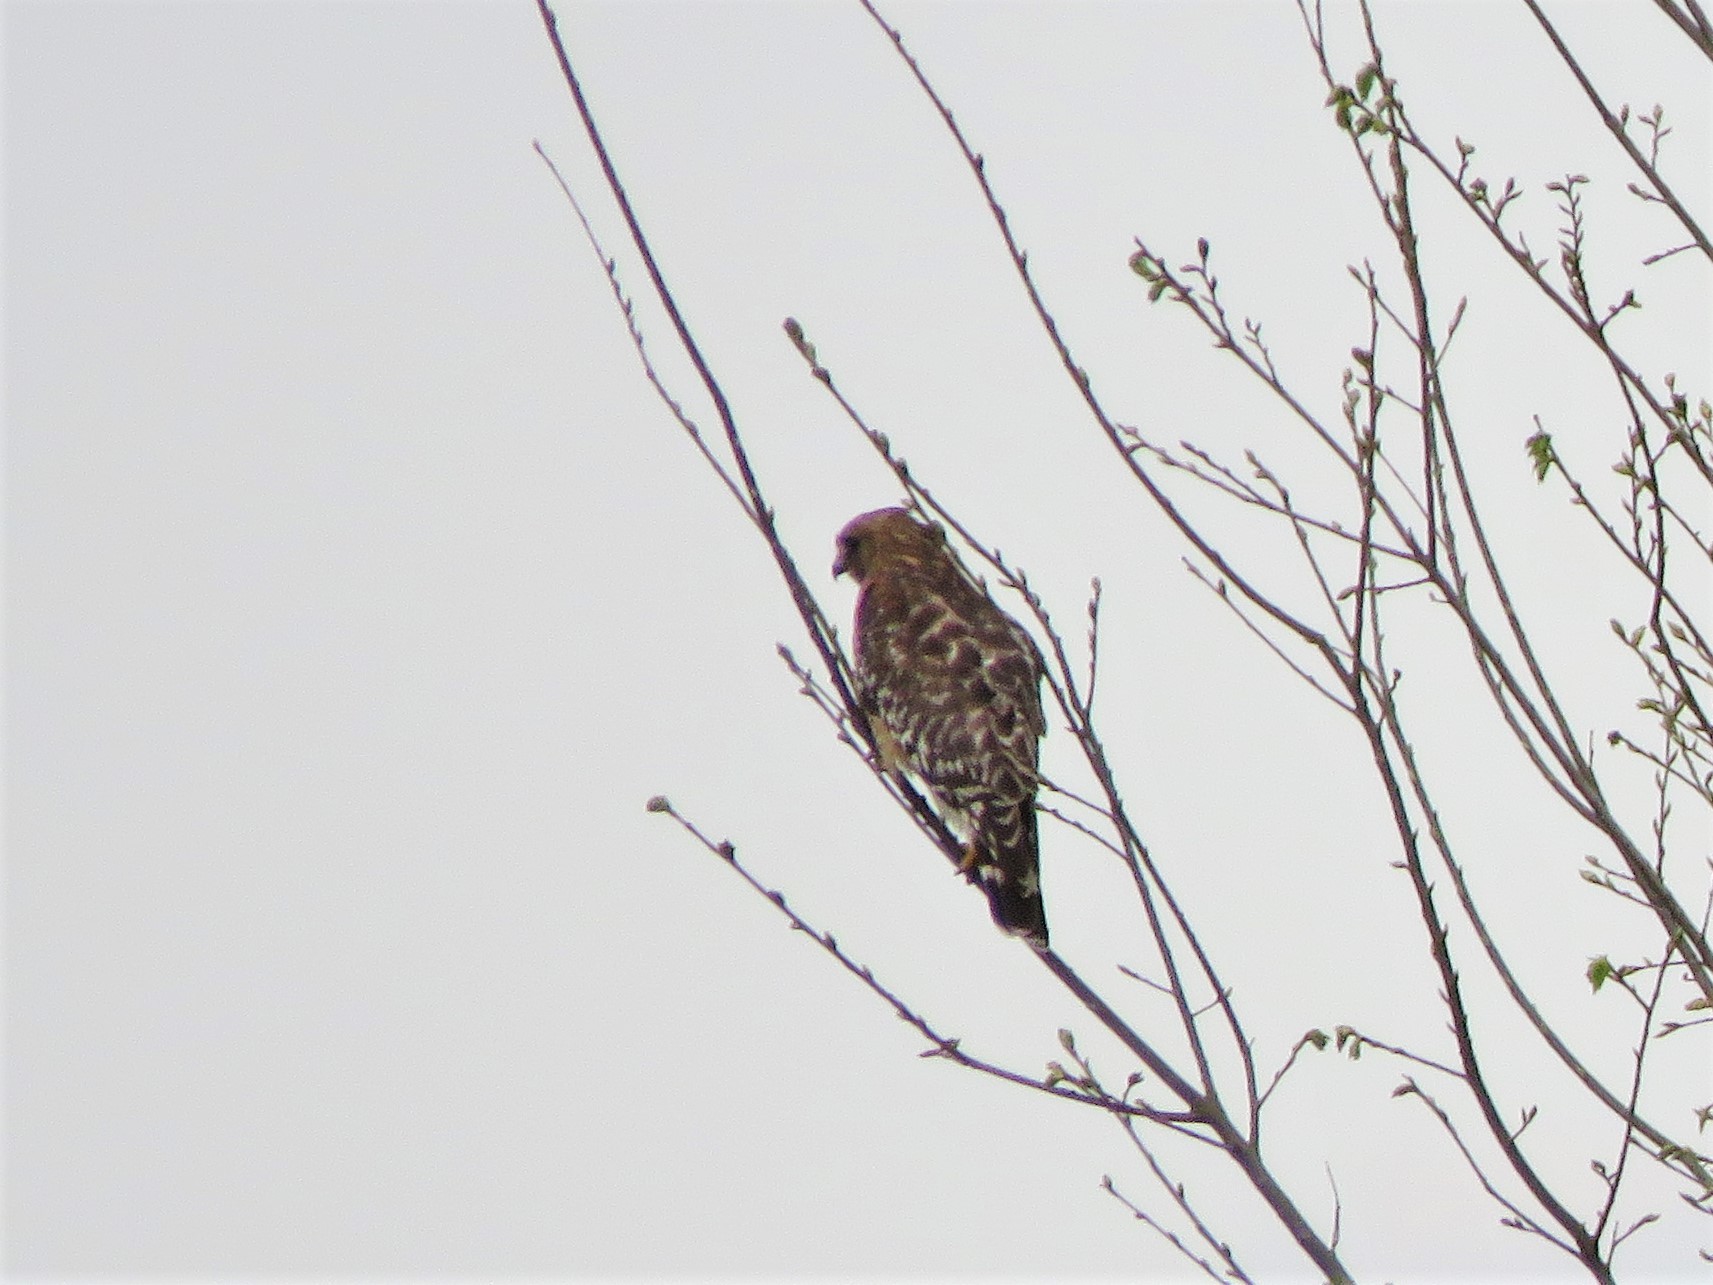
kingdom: Animalia
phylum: Chordata
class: Aves
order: Accipitriformes
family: Accipitridae
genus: Buteo
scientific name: Buteo lineatus
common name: Red-shouldered hawk
